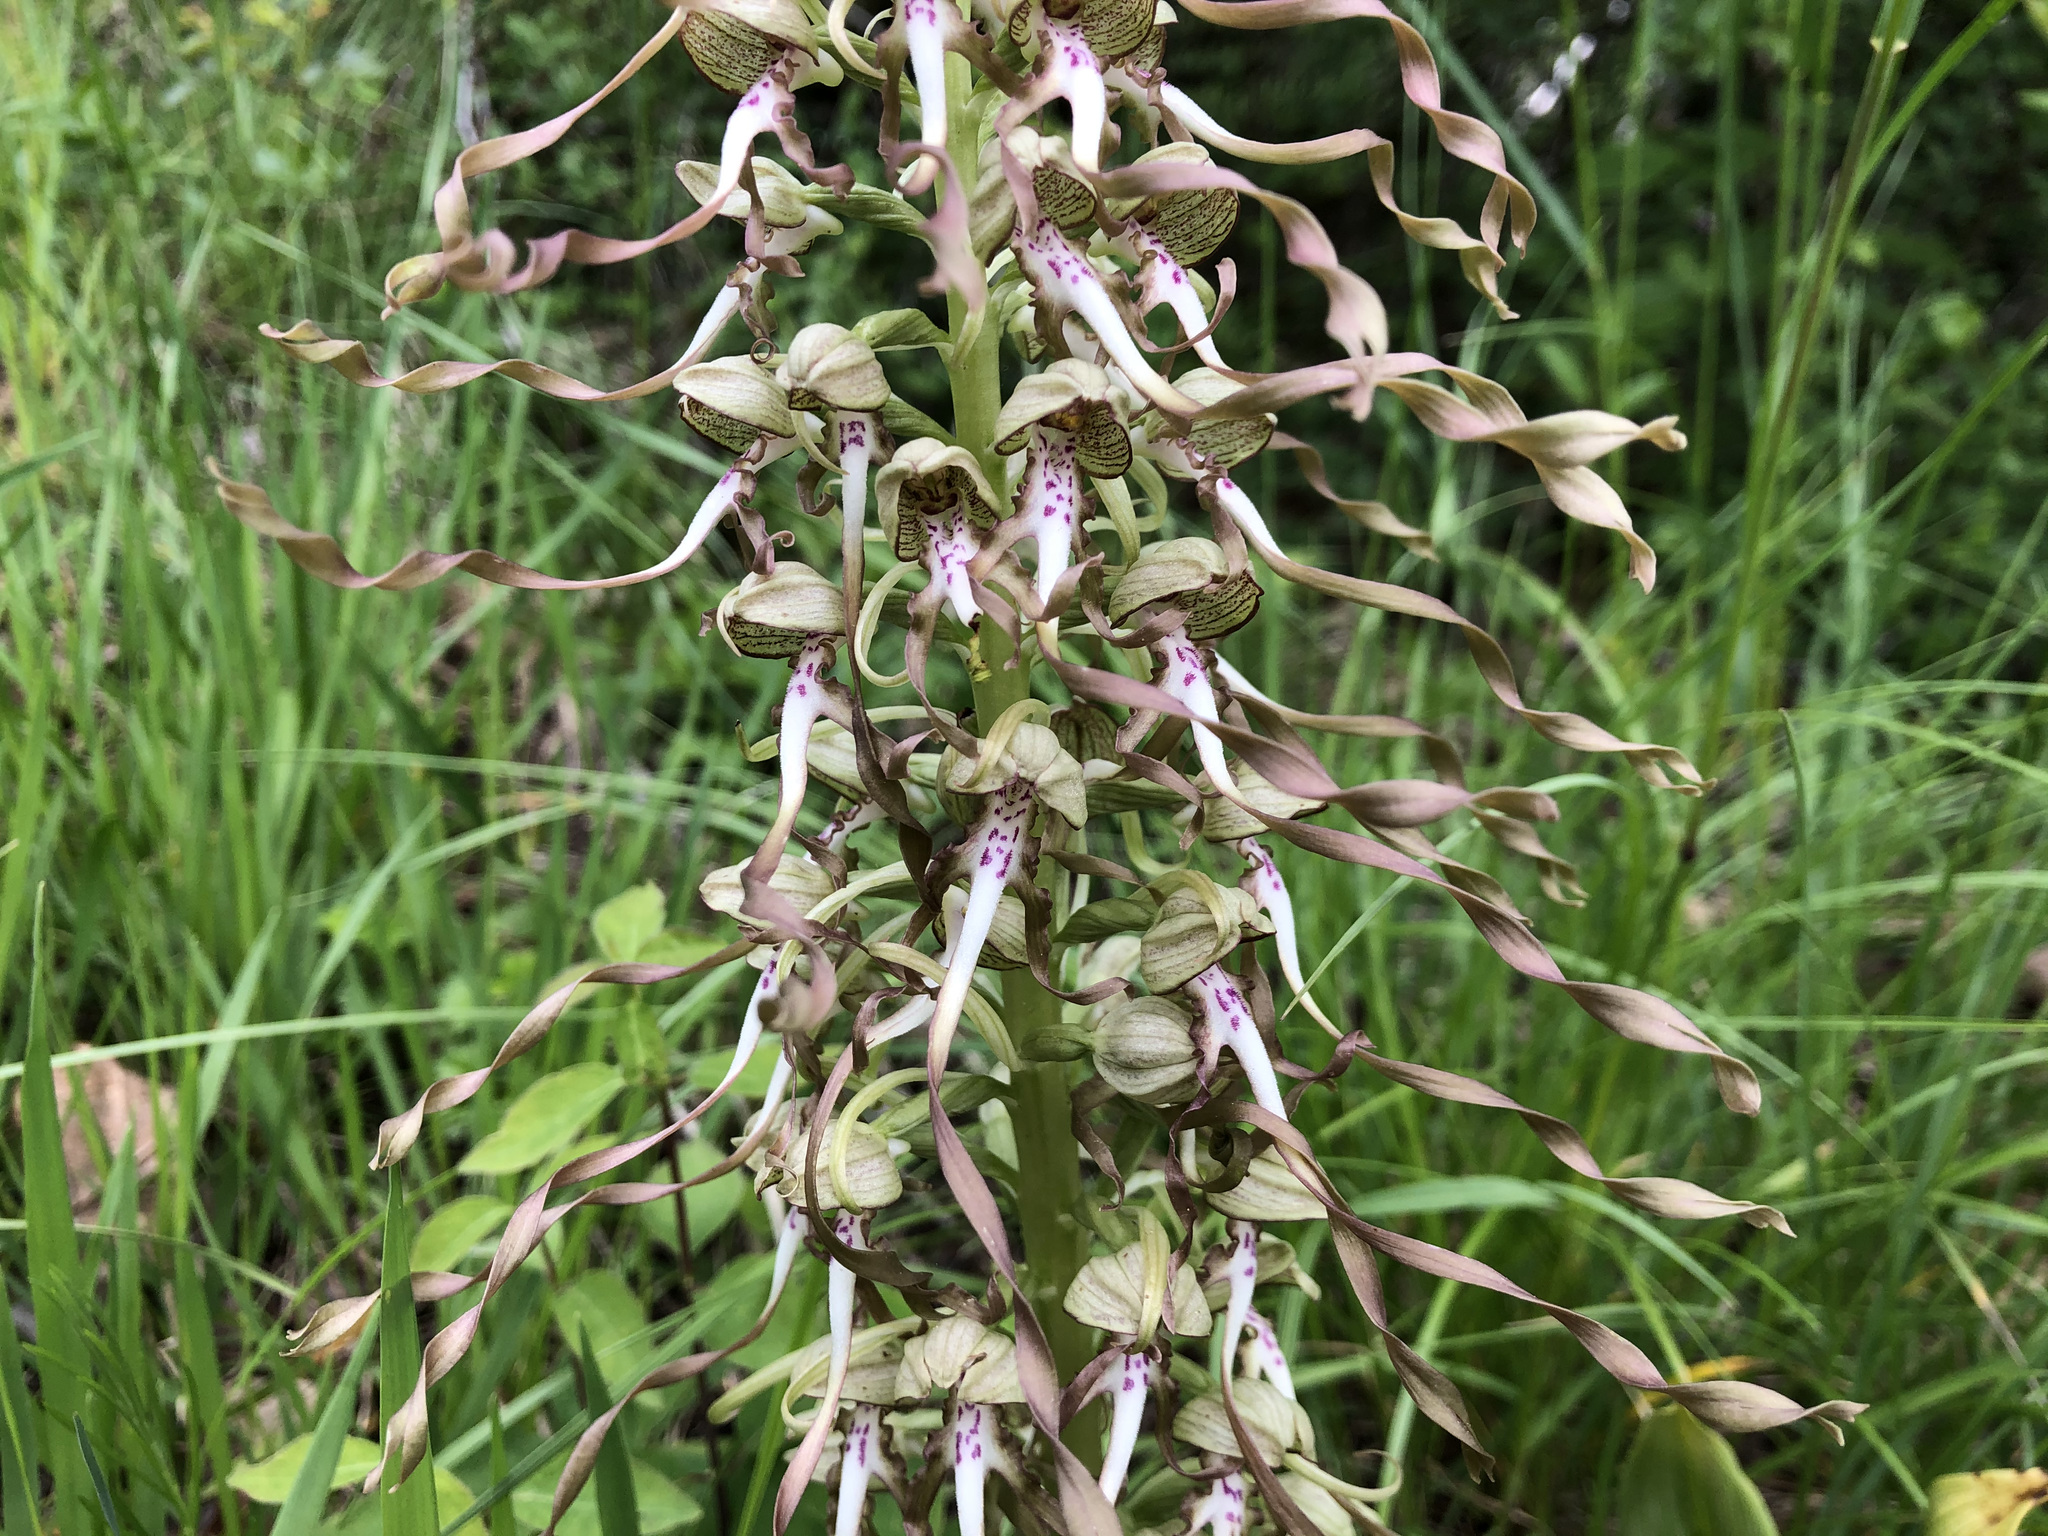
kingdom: Plantae
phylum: Tracheophyta
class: Liliopsida
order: Asparagales
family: Orchidaceae
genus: Himantoglossum
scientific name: Himantoglossum hircinum
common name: Lizard orchid
